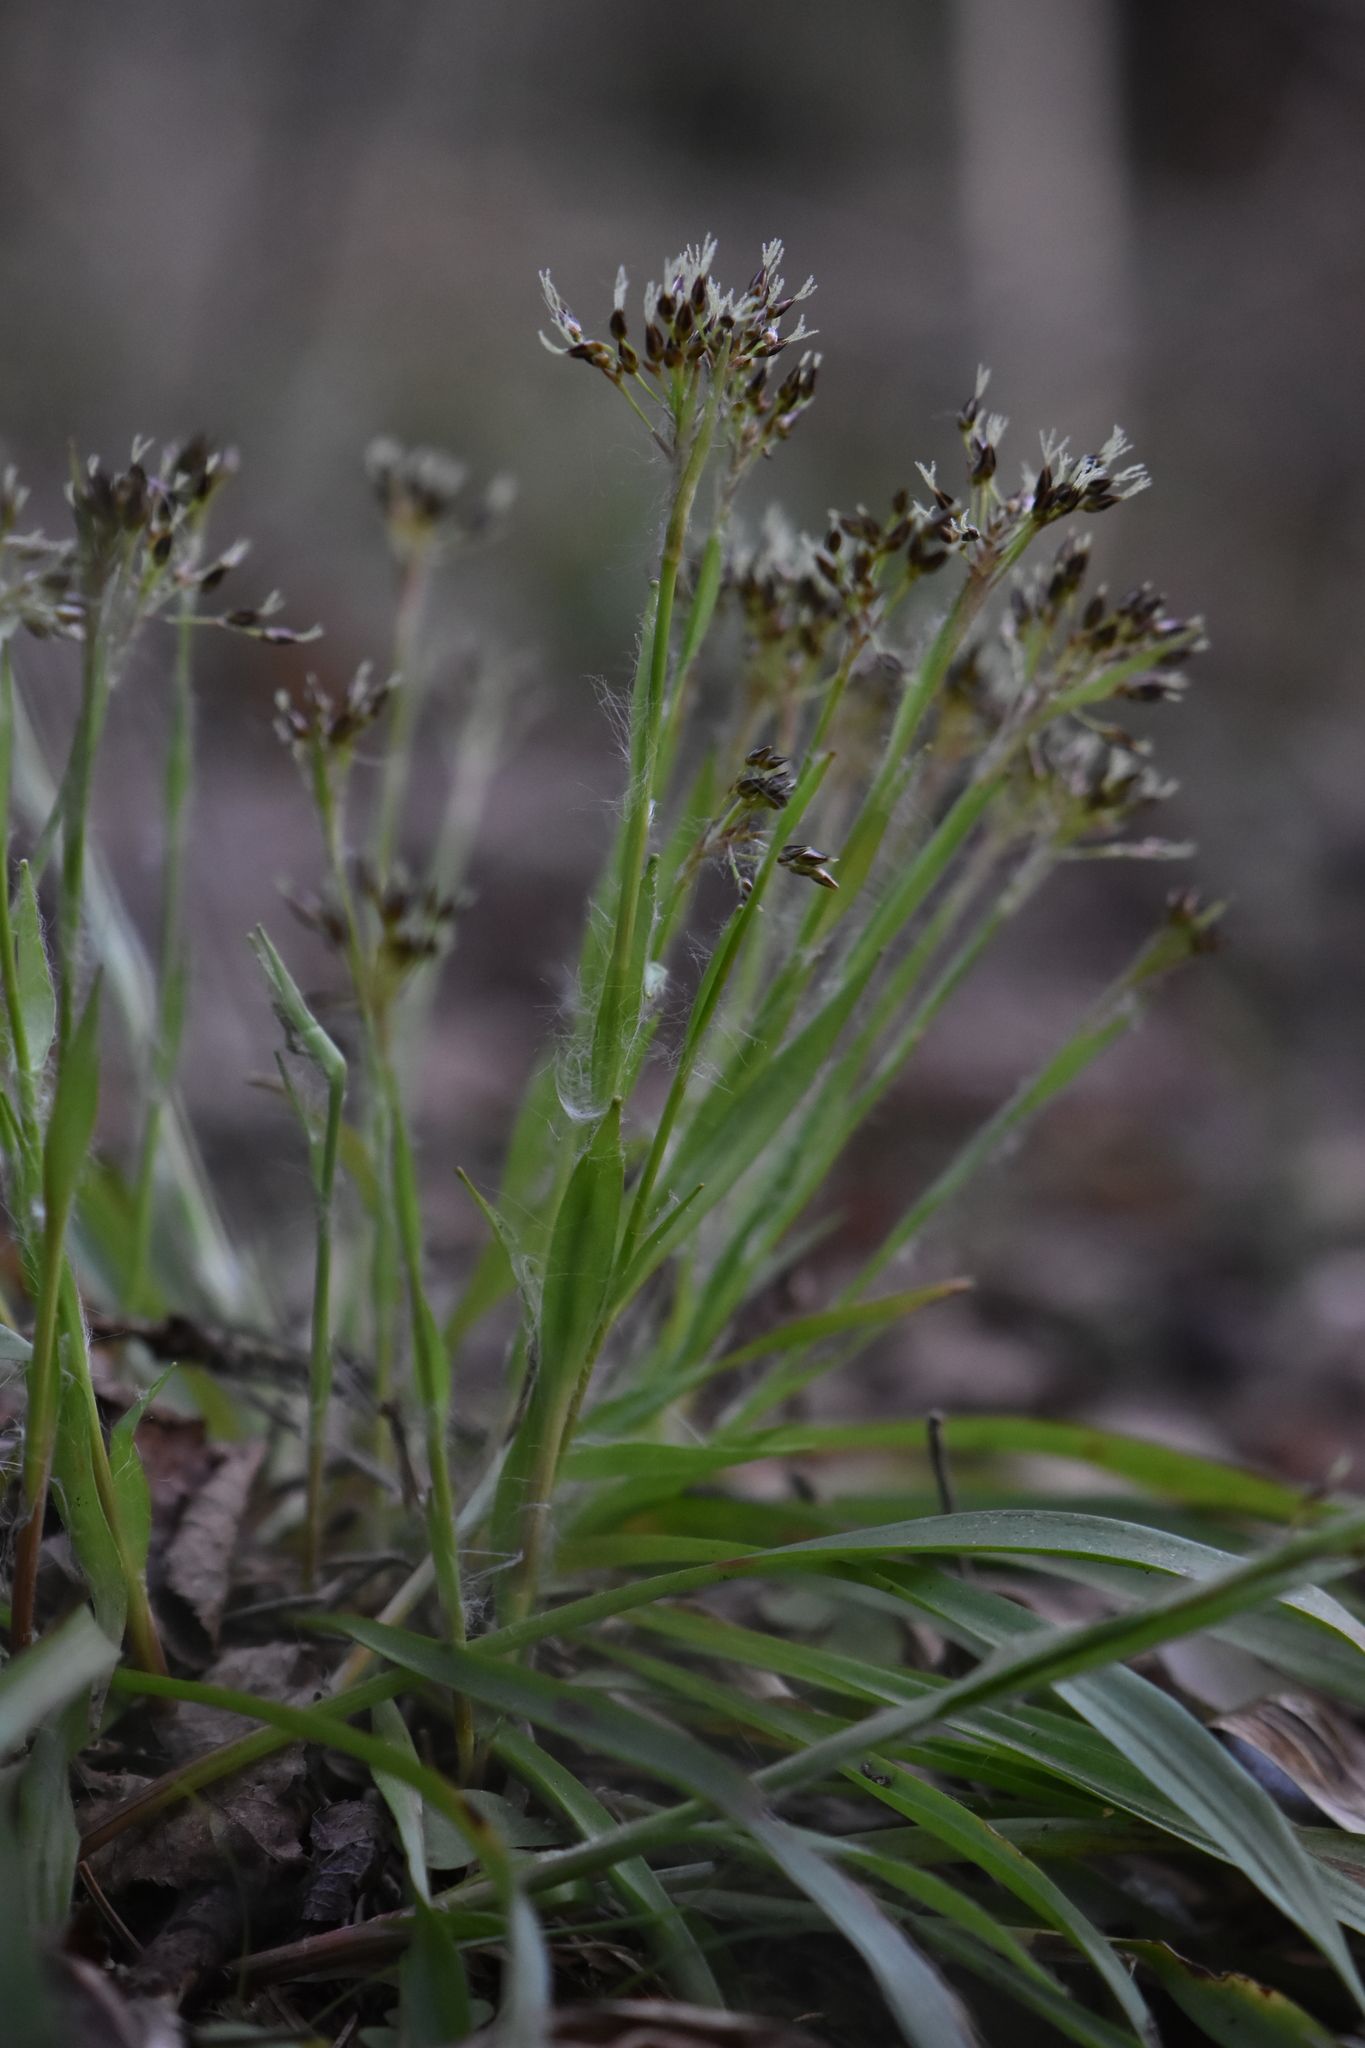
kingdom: Plantae
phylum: Tracheophyta
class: Liliopsida
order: Poales
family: Juncaceae
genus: Luzula
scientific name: Luzula pilosa
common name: Hairy wood-rush
